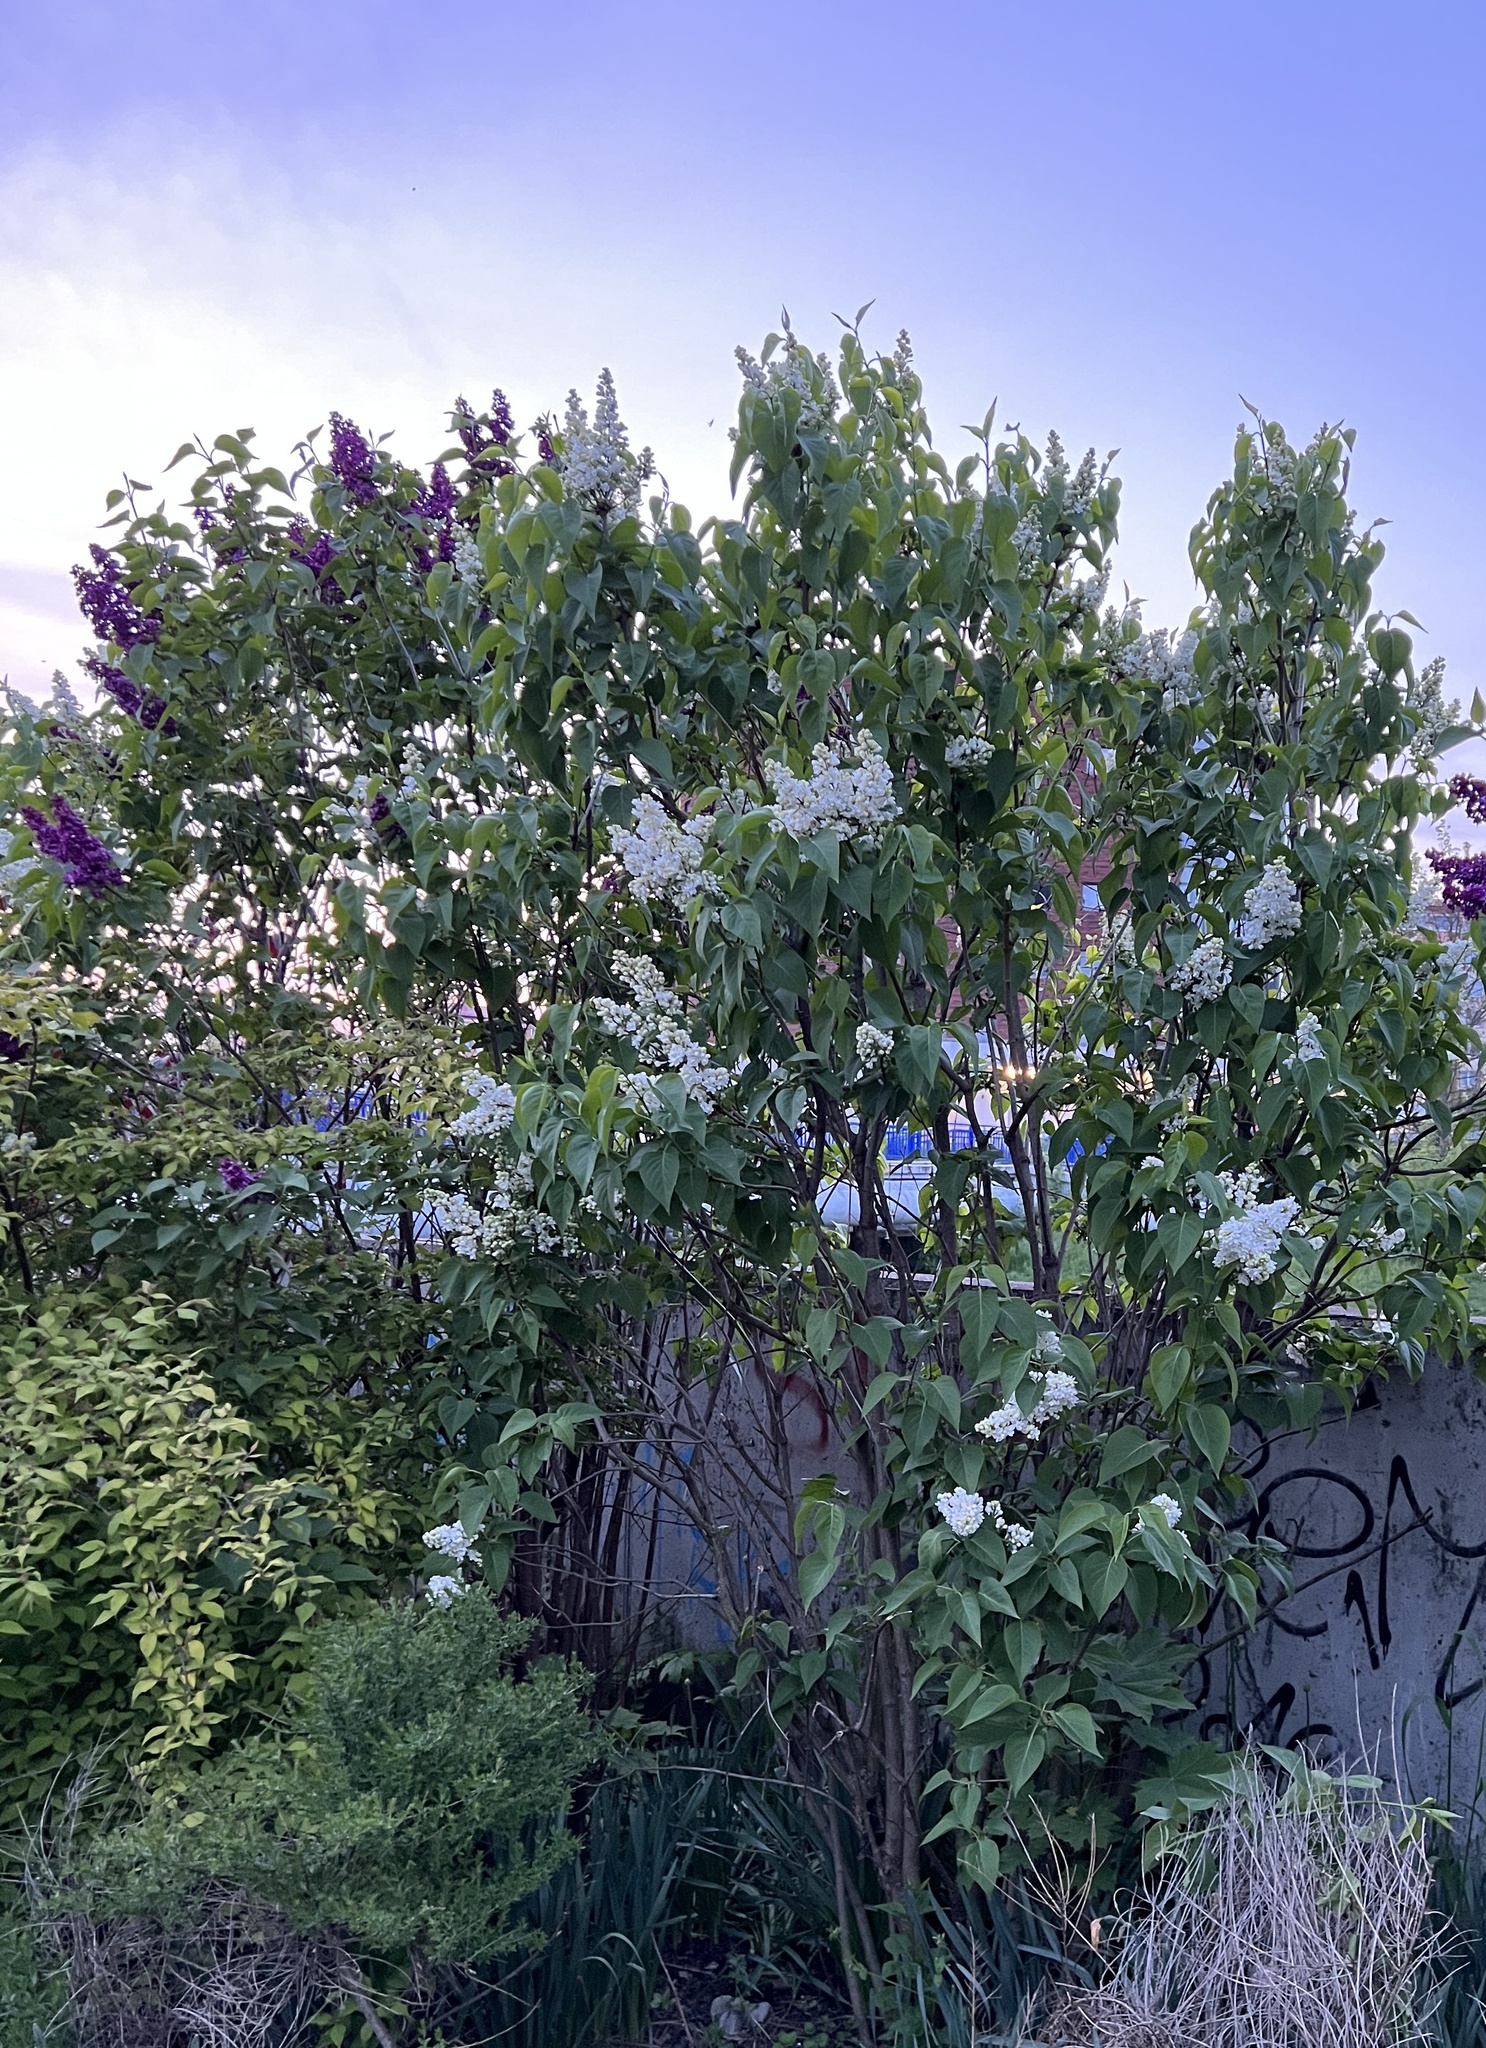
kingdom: Plantae
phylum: Tracheophyta
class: Magnoliopsida
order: Lamiales
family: Oleaceae
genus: Syringa
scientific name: Syringa vulgaris
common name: Common lilac
